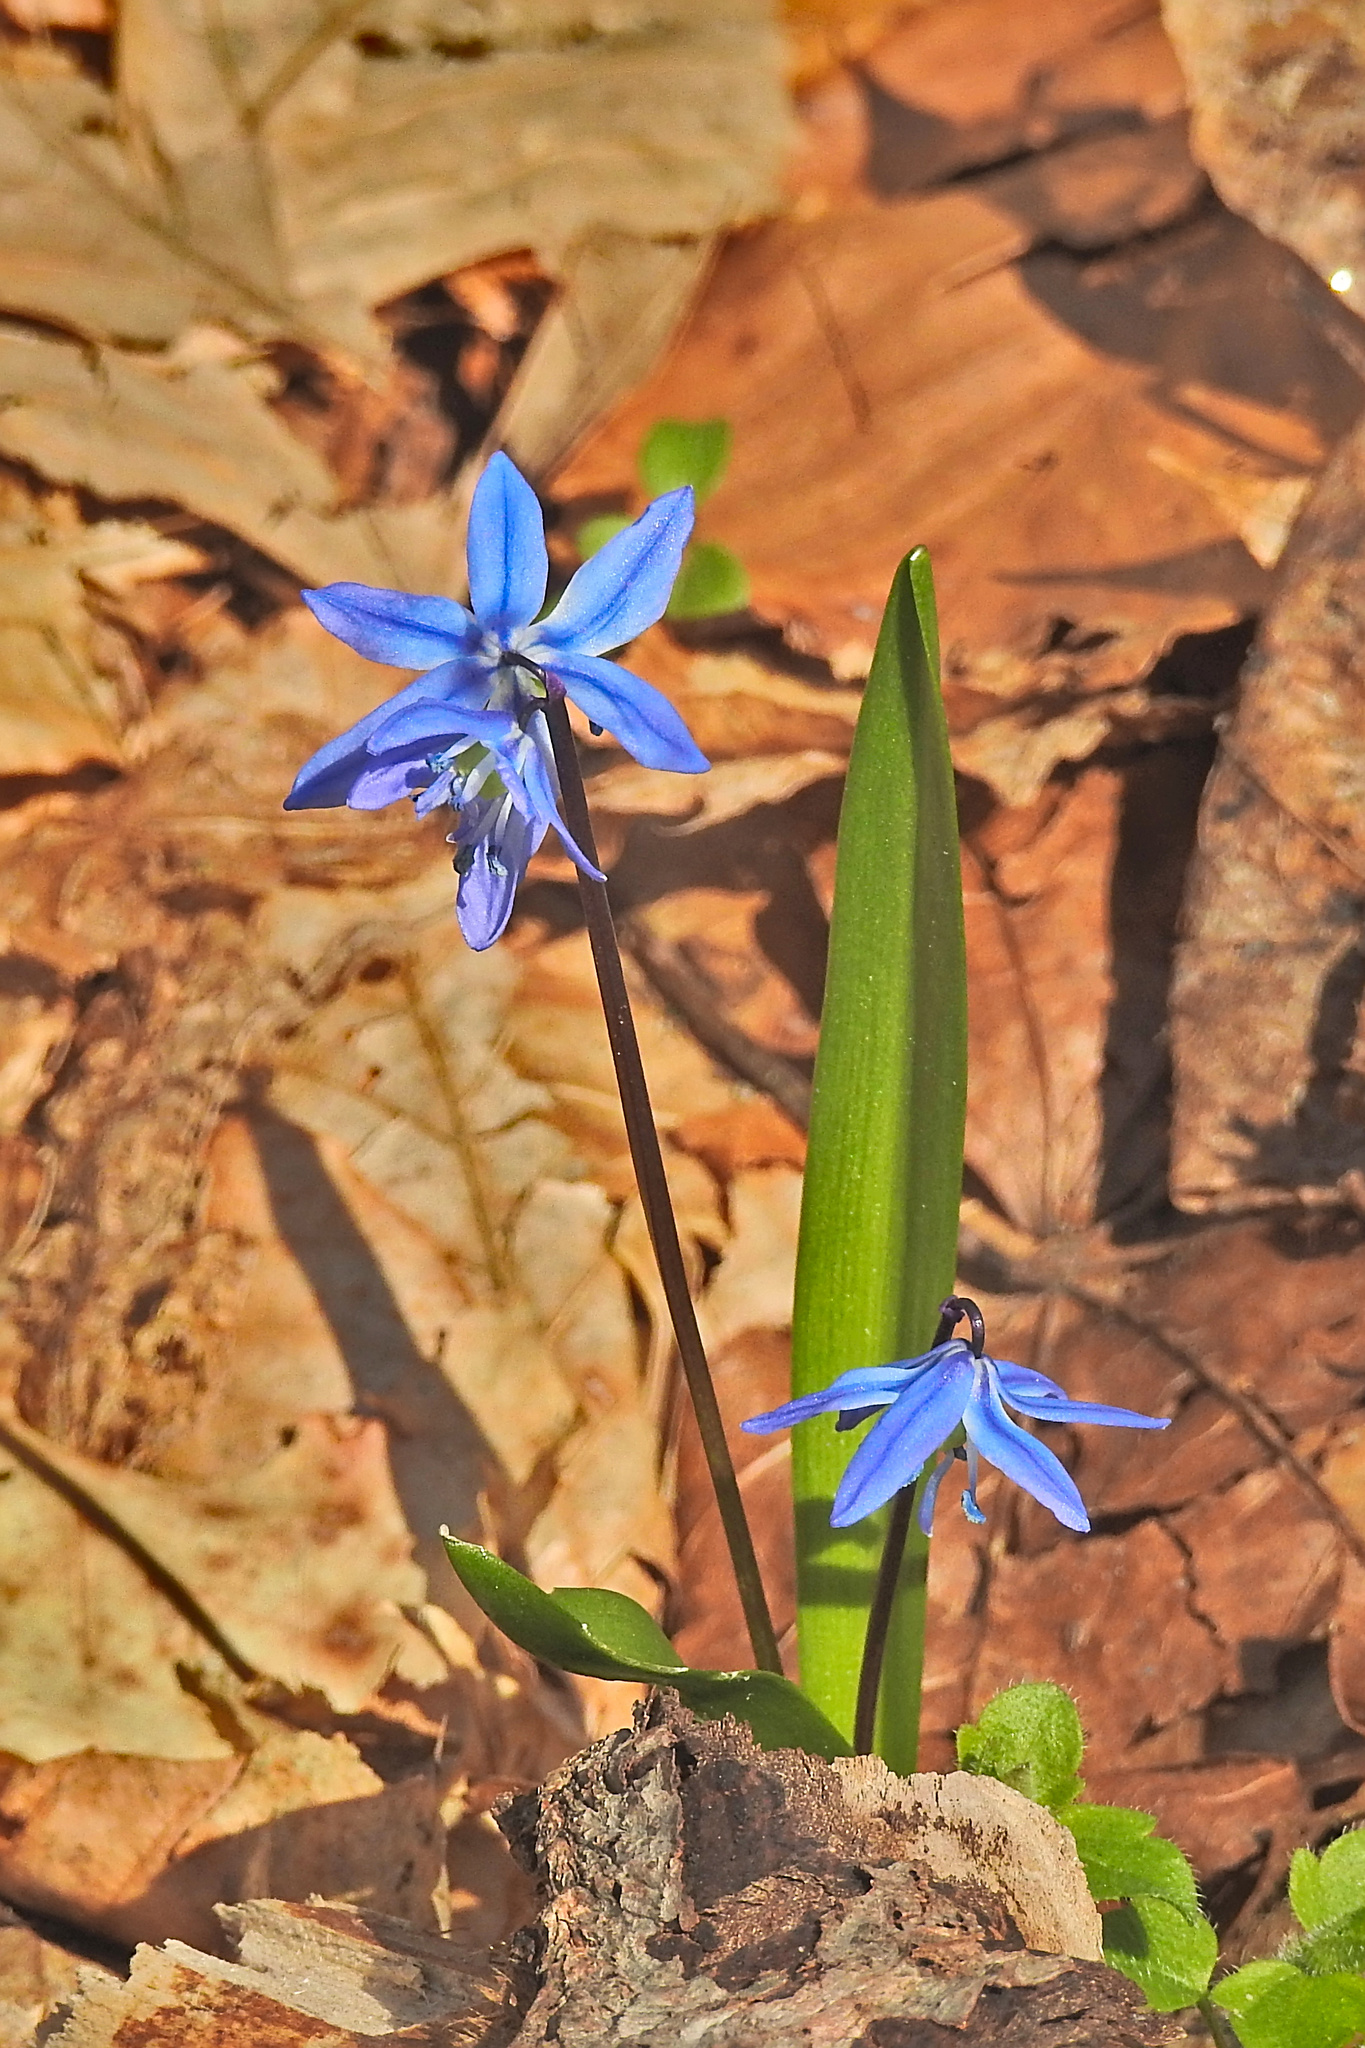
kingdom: Plantae
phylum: Tracheophyta
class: Liliopsida
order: Asparagales
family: Asparagaceae
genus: Scilla
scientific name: Scilla siberica
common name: Siberian squill
